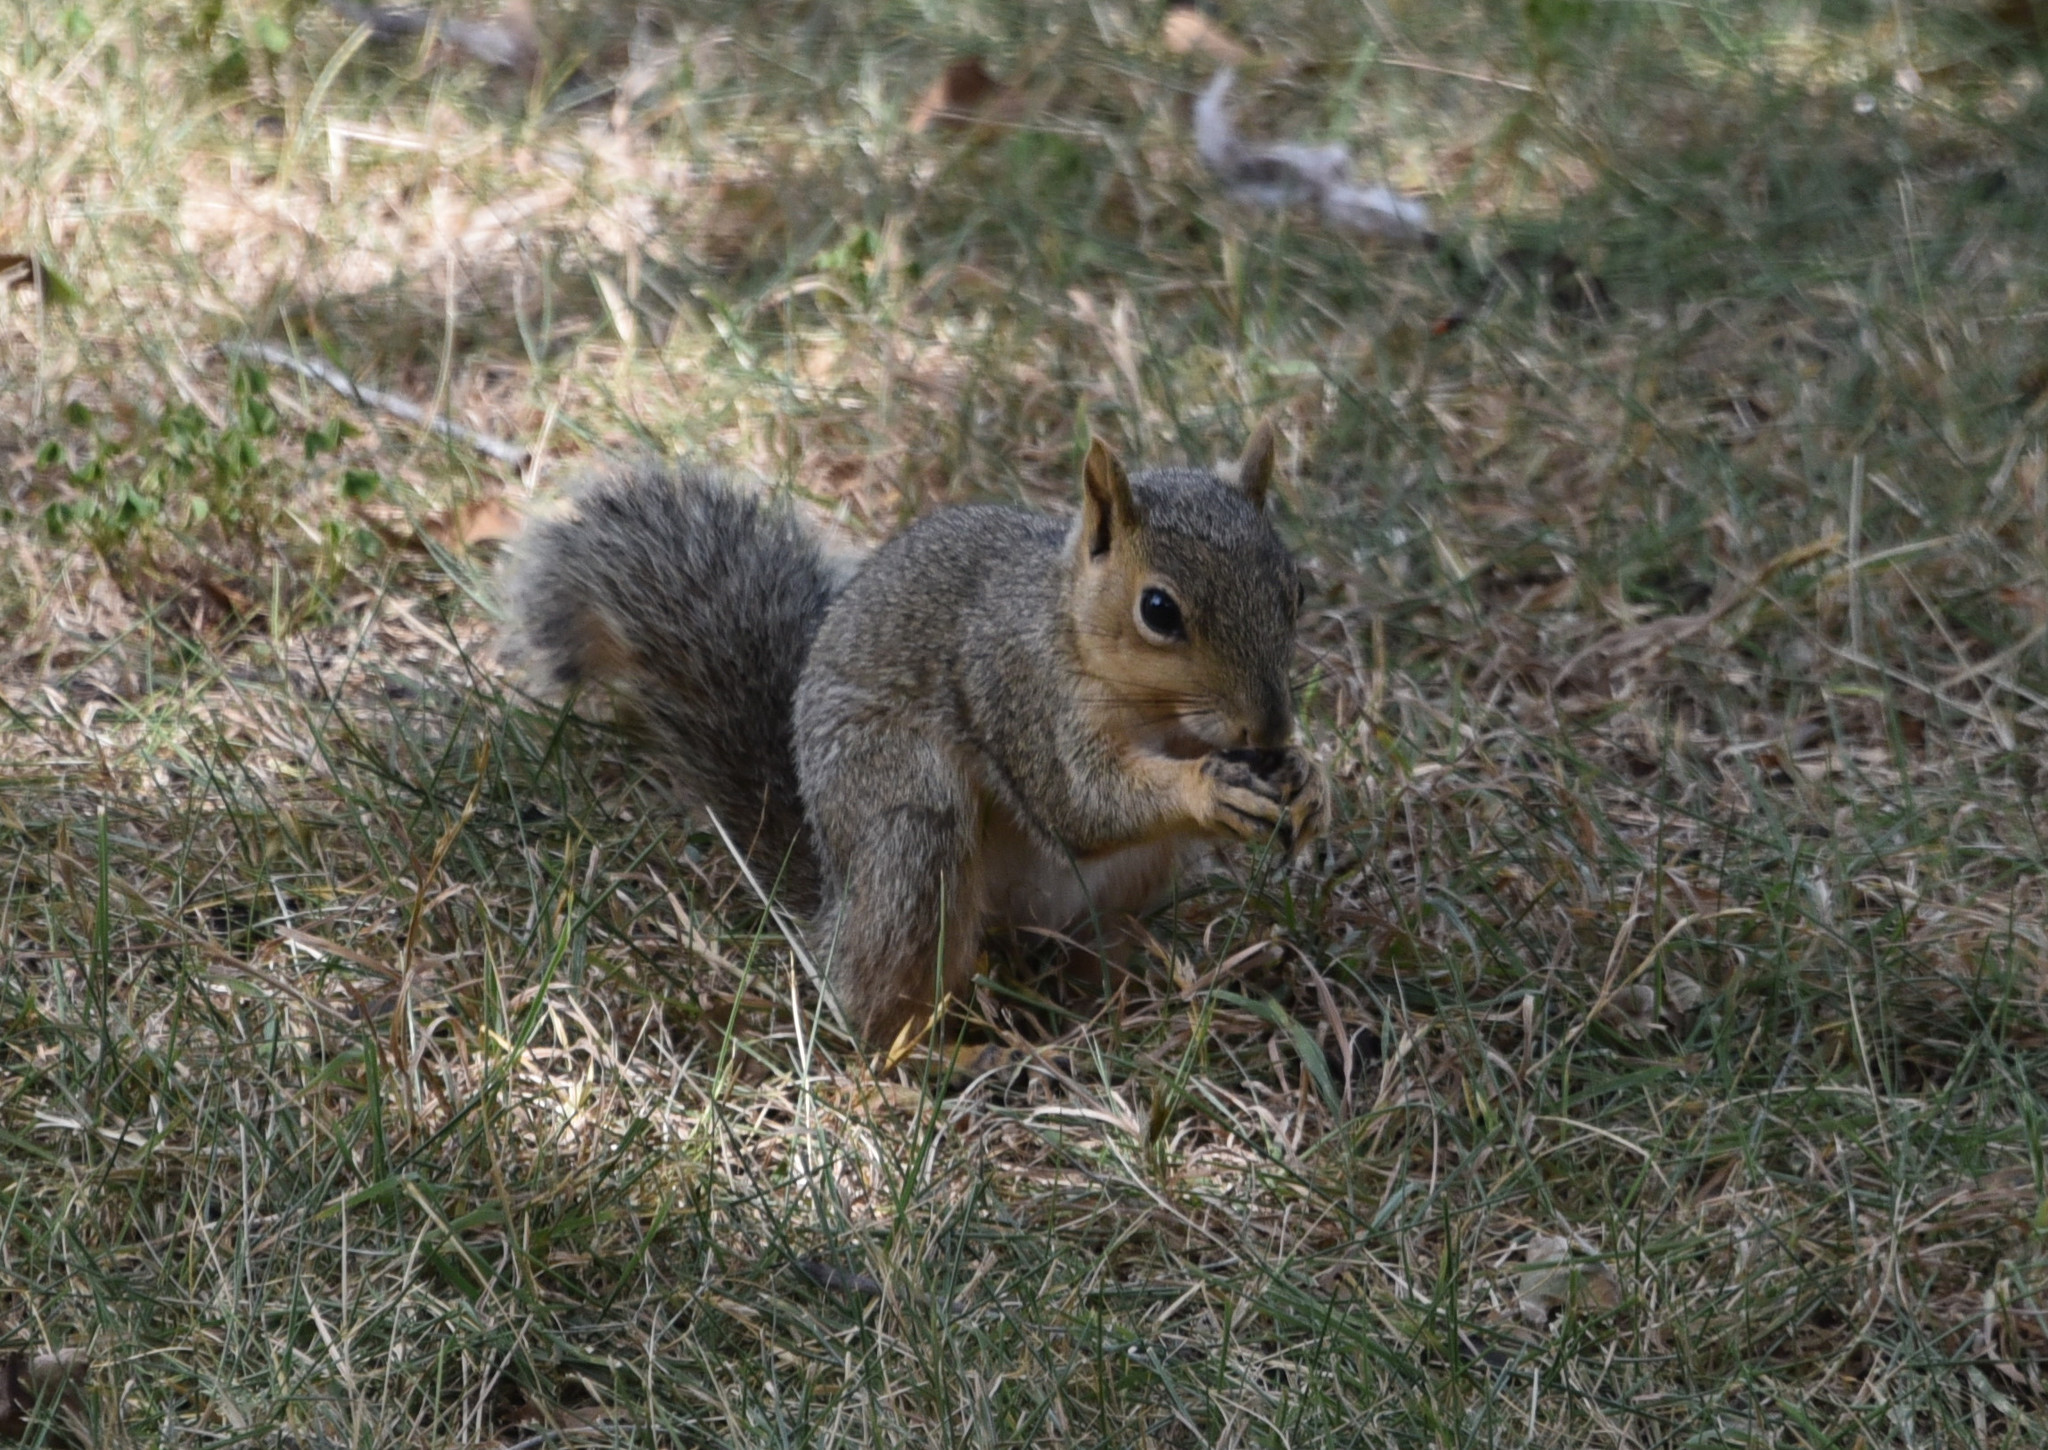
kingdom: Animalia
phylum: Chordata
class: Mammalia
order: Rodentia
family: Sciuridae
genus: Sciurus
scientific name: Sciurus niger
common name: Fox squirrel
